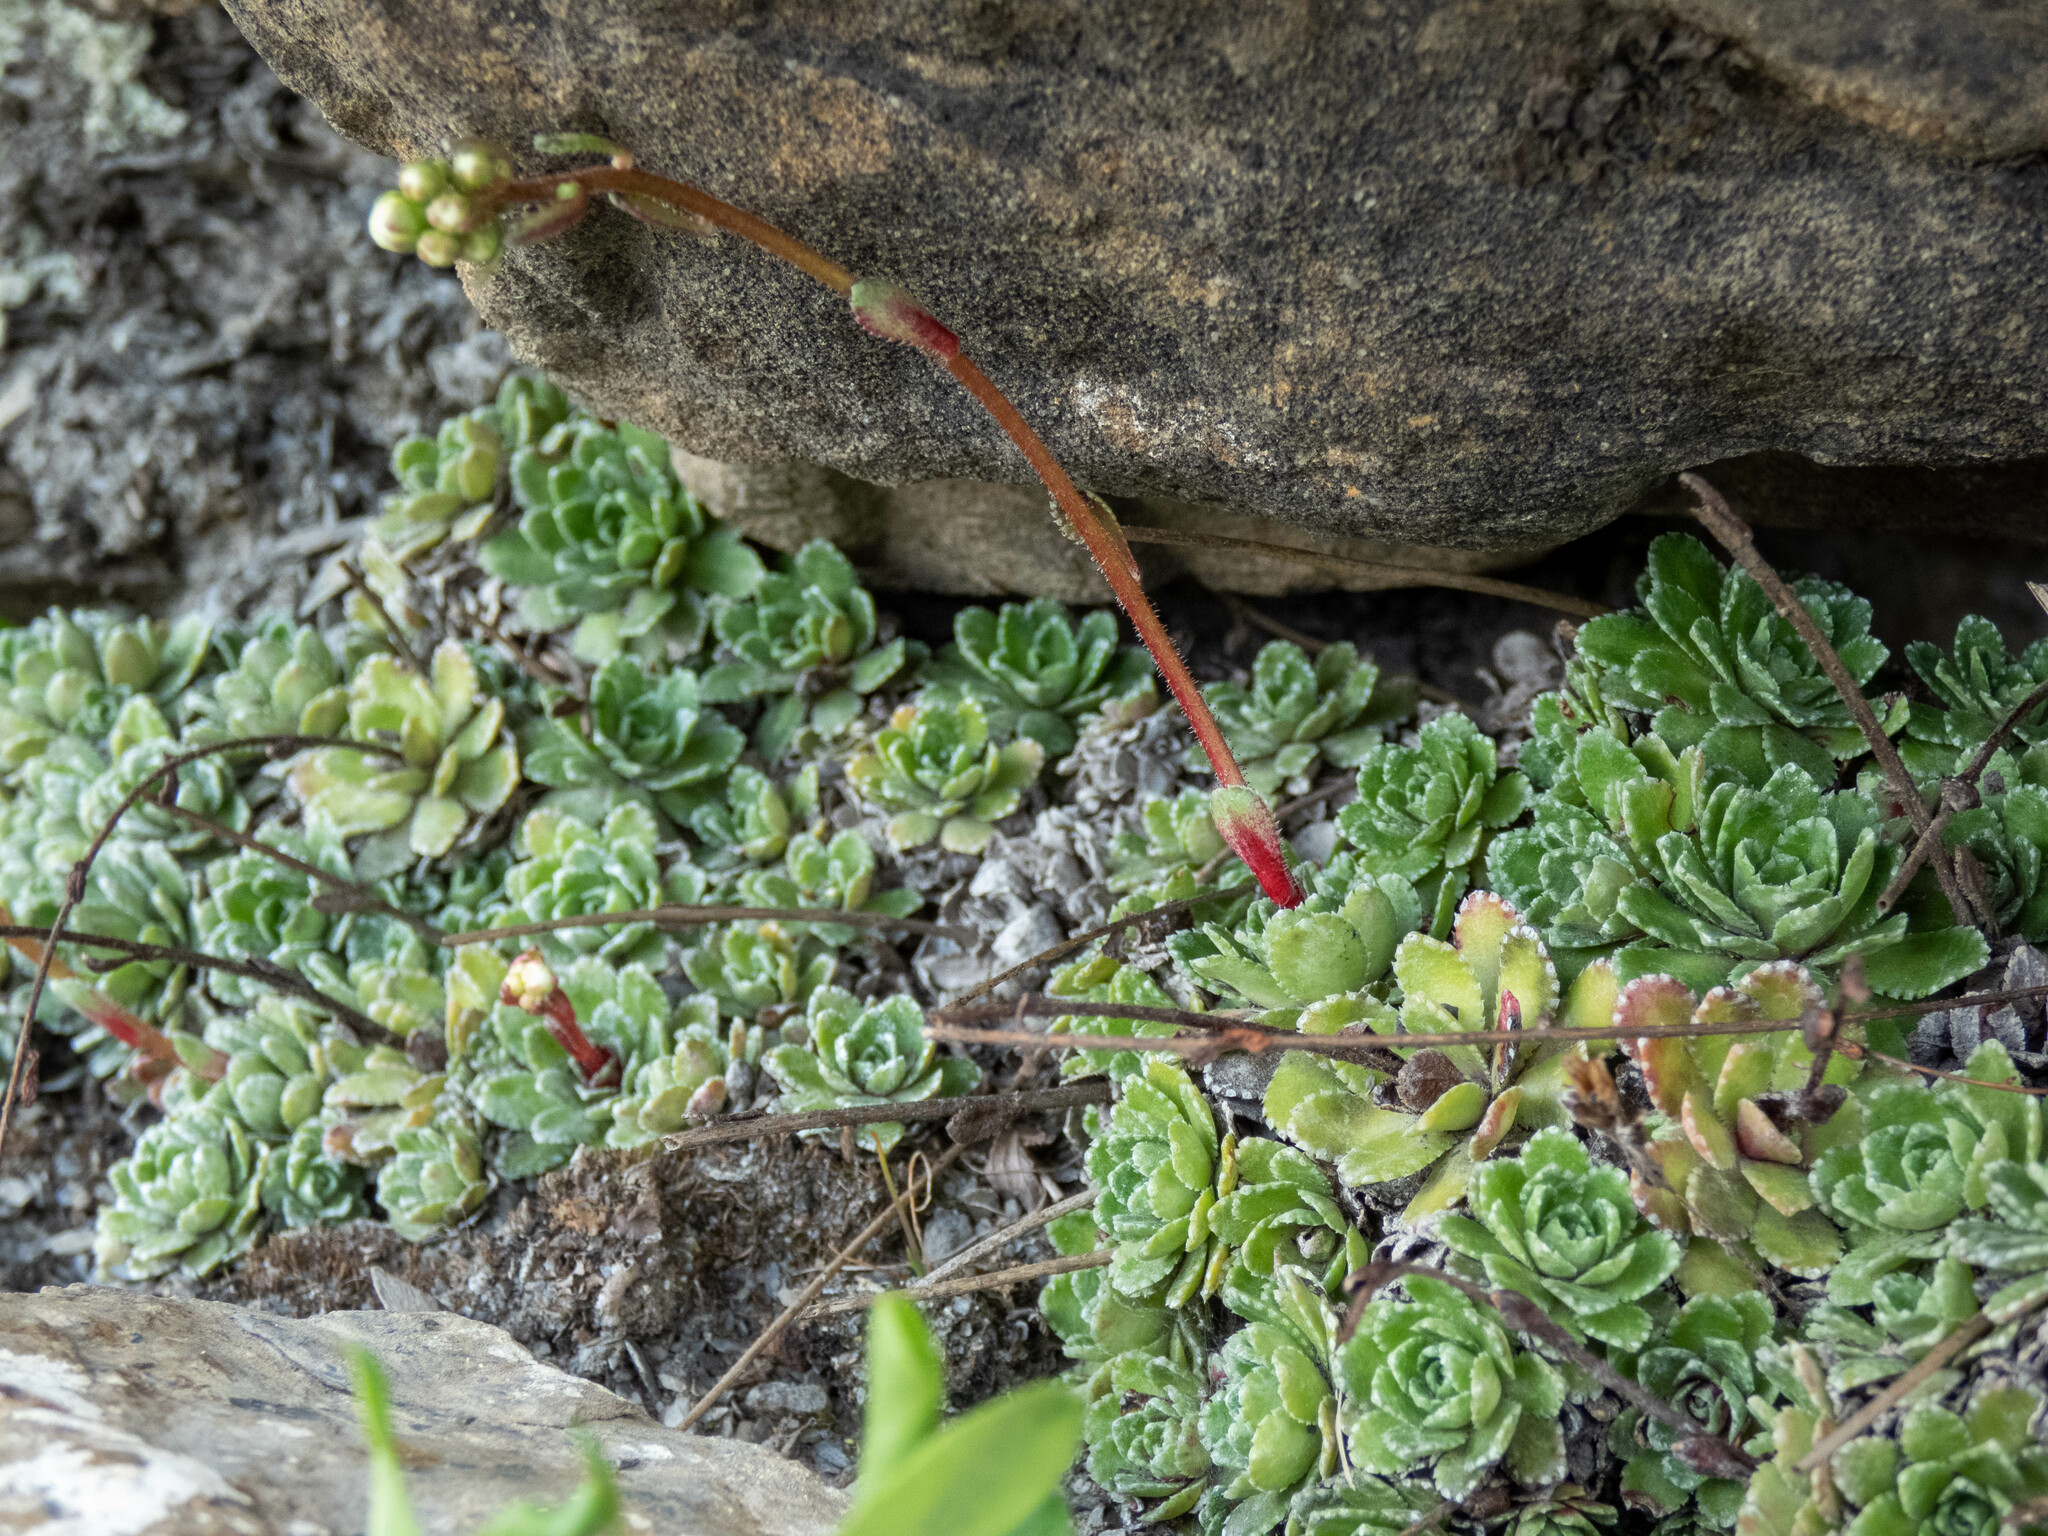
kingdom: Plantae
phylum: Tracheophyta
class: Magnoliopsida
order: Saxifragales
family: Saxifragaceae
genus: Saxifraga
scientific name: Saxifraga paniculata
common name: Livelong saxifrage
